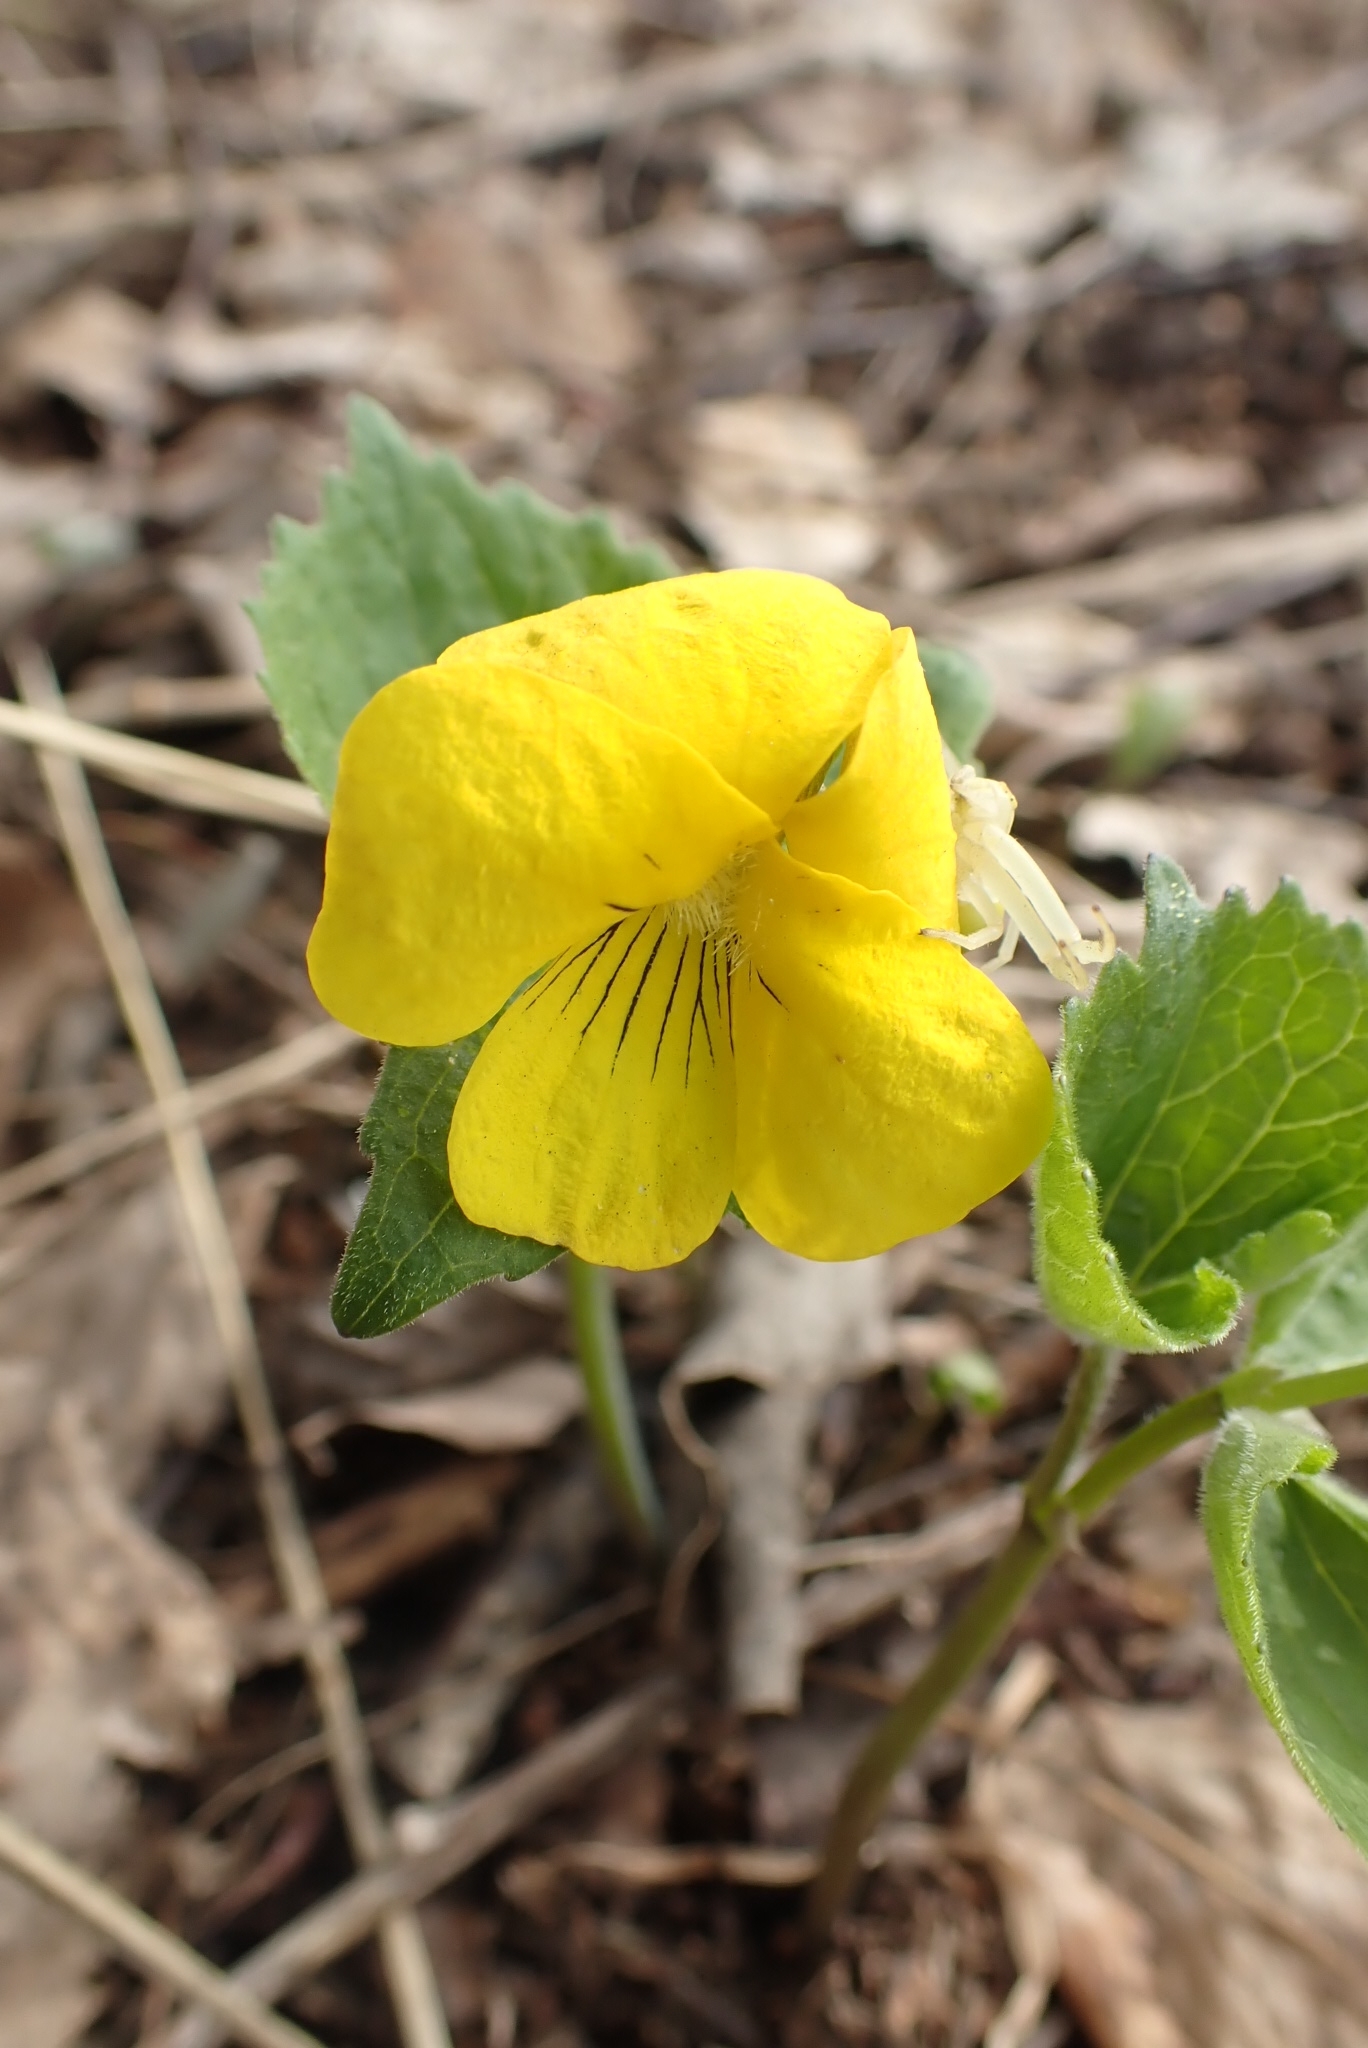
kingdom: Plantae
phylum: Tracheophyta
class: Magnoliopsida
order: Malpighiales
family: Violaceae
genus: Viola
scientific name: Viola uniflora
